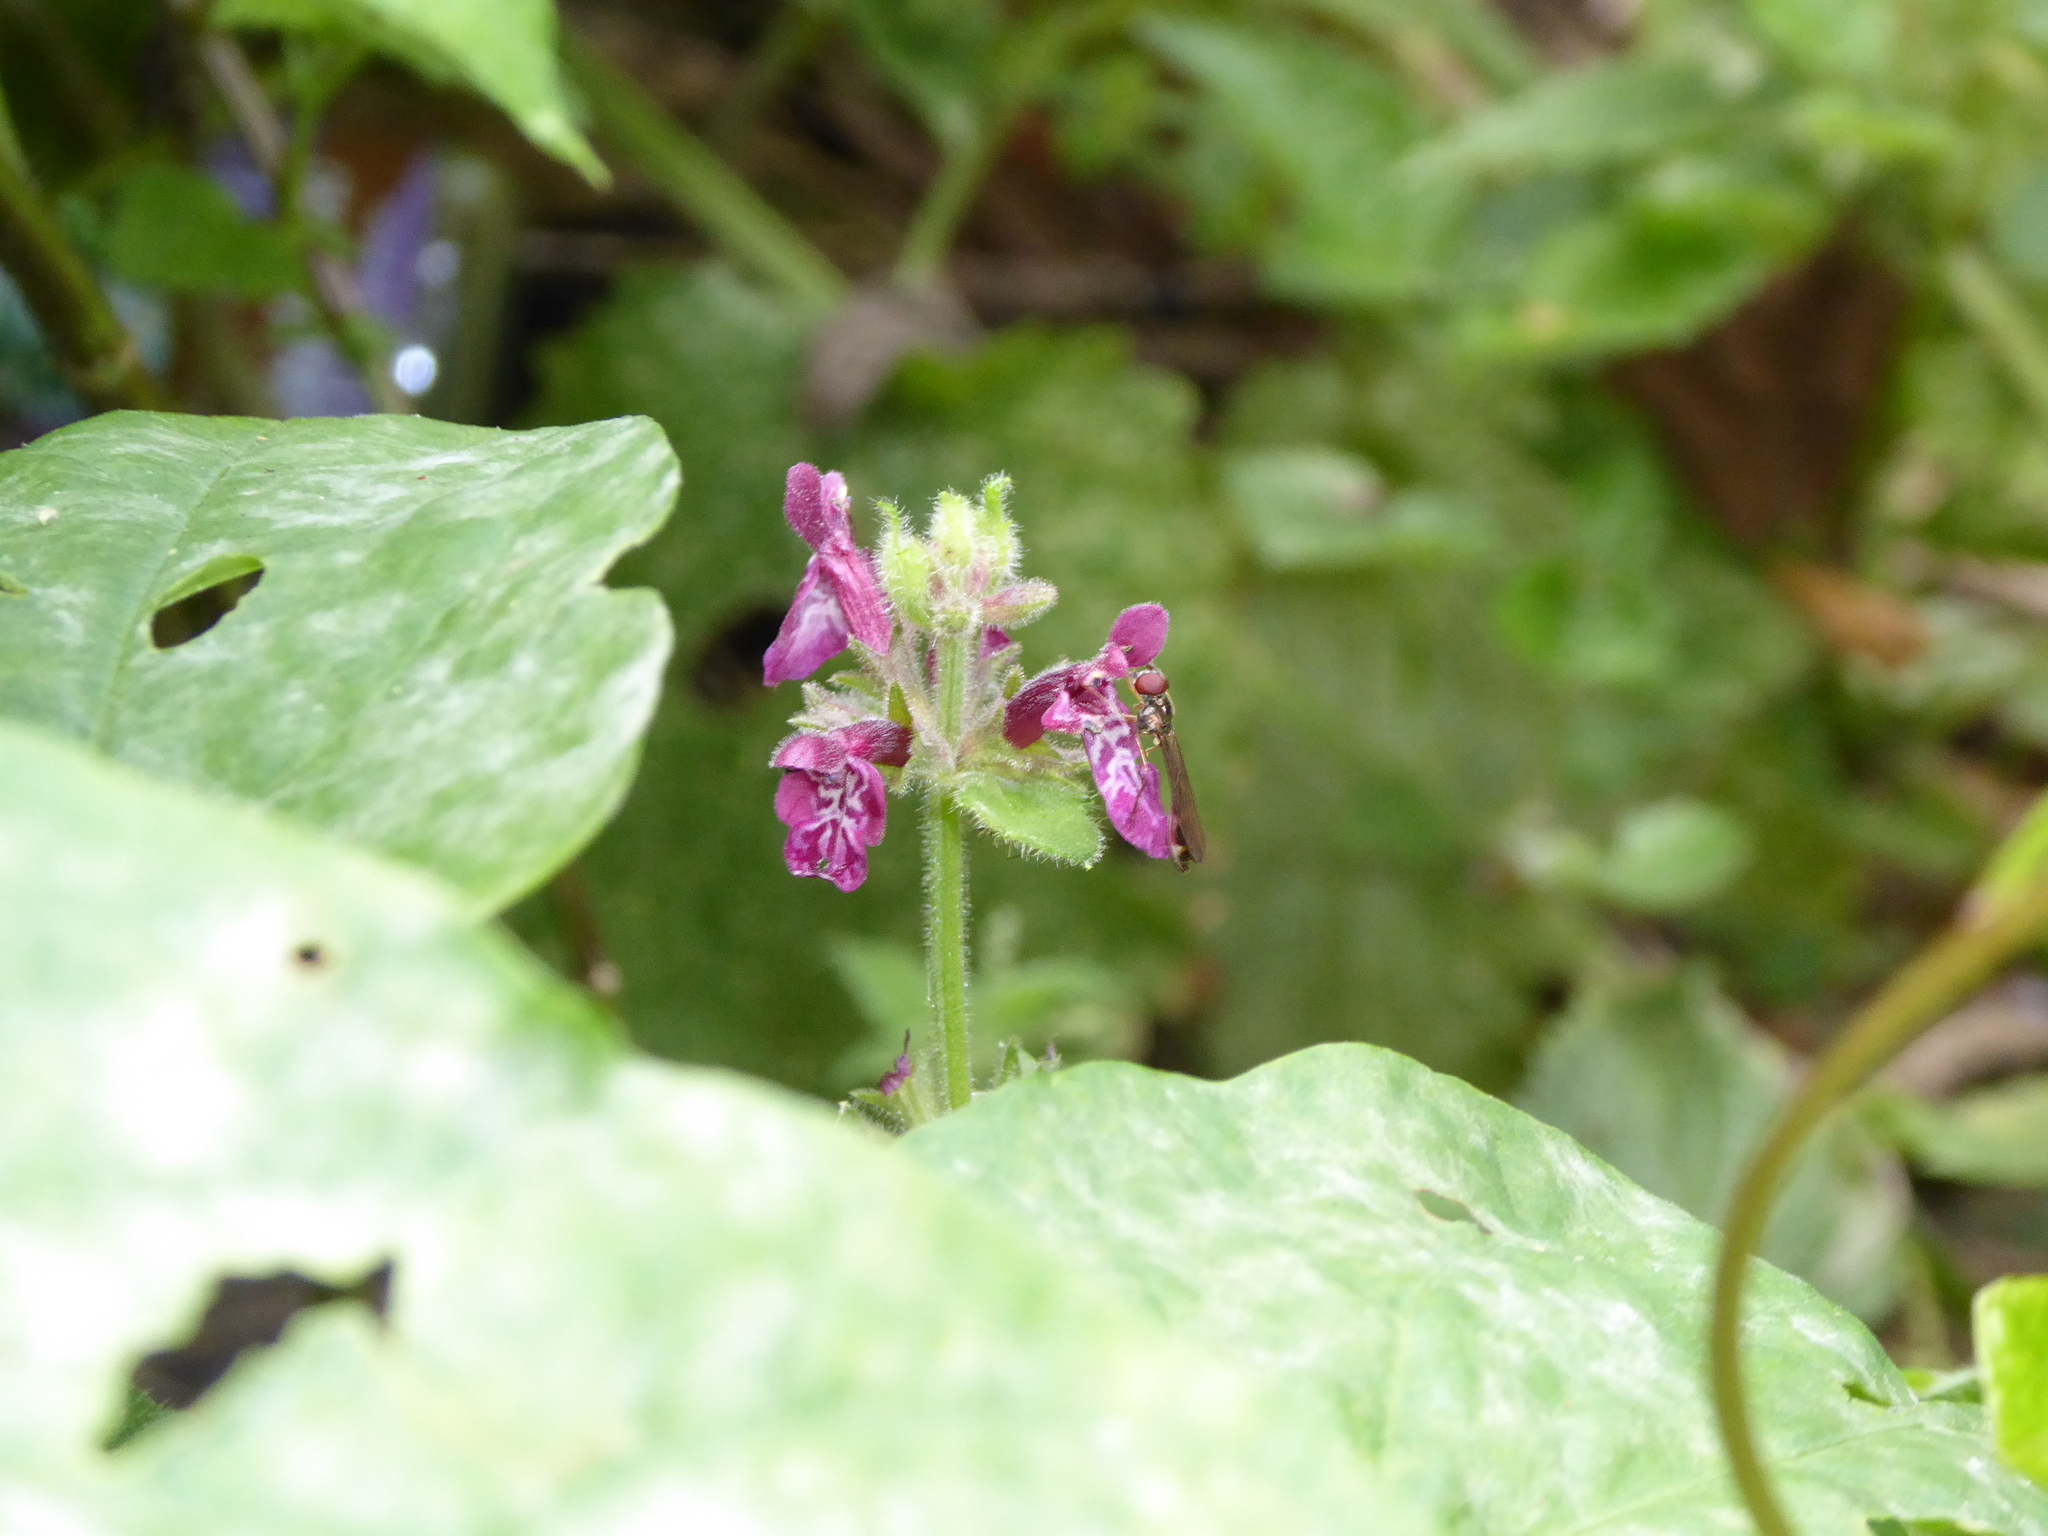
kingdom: Animalia
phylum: Arthropoda
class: Insecta
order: Diptera
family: Syrphidae
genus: Baccha
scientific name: Baccha elongata
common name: Common dainty
